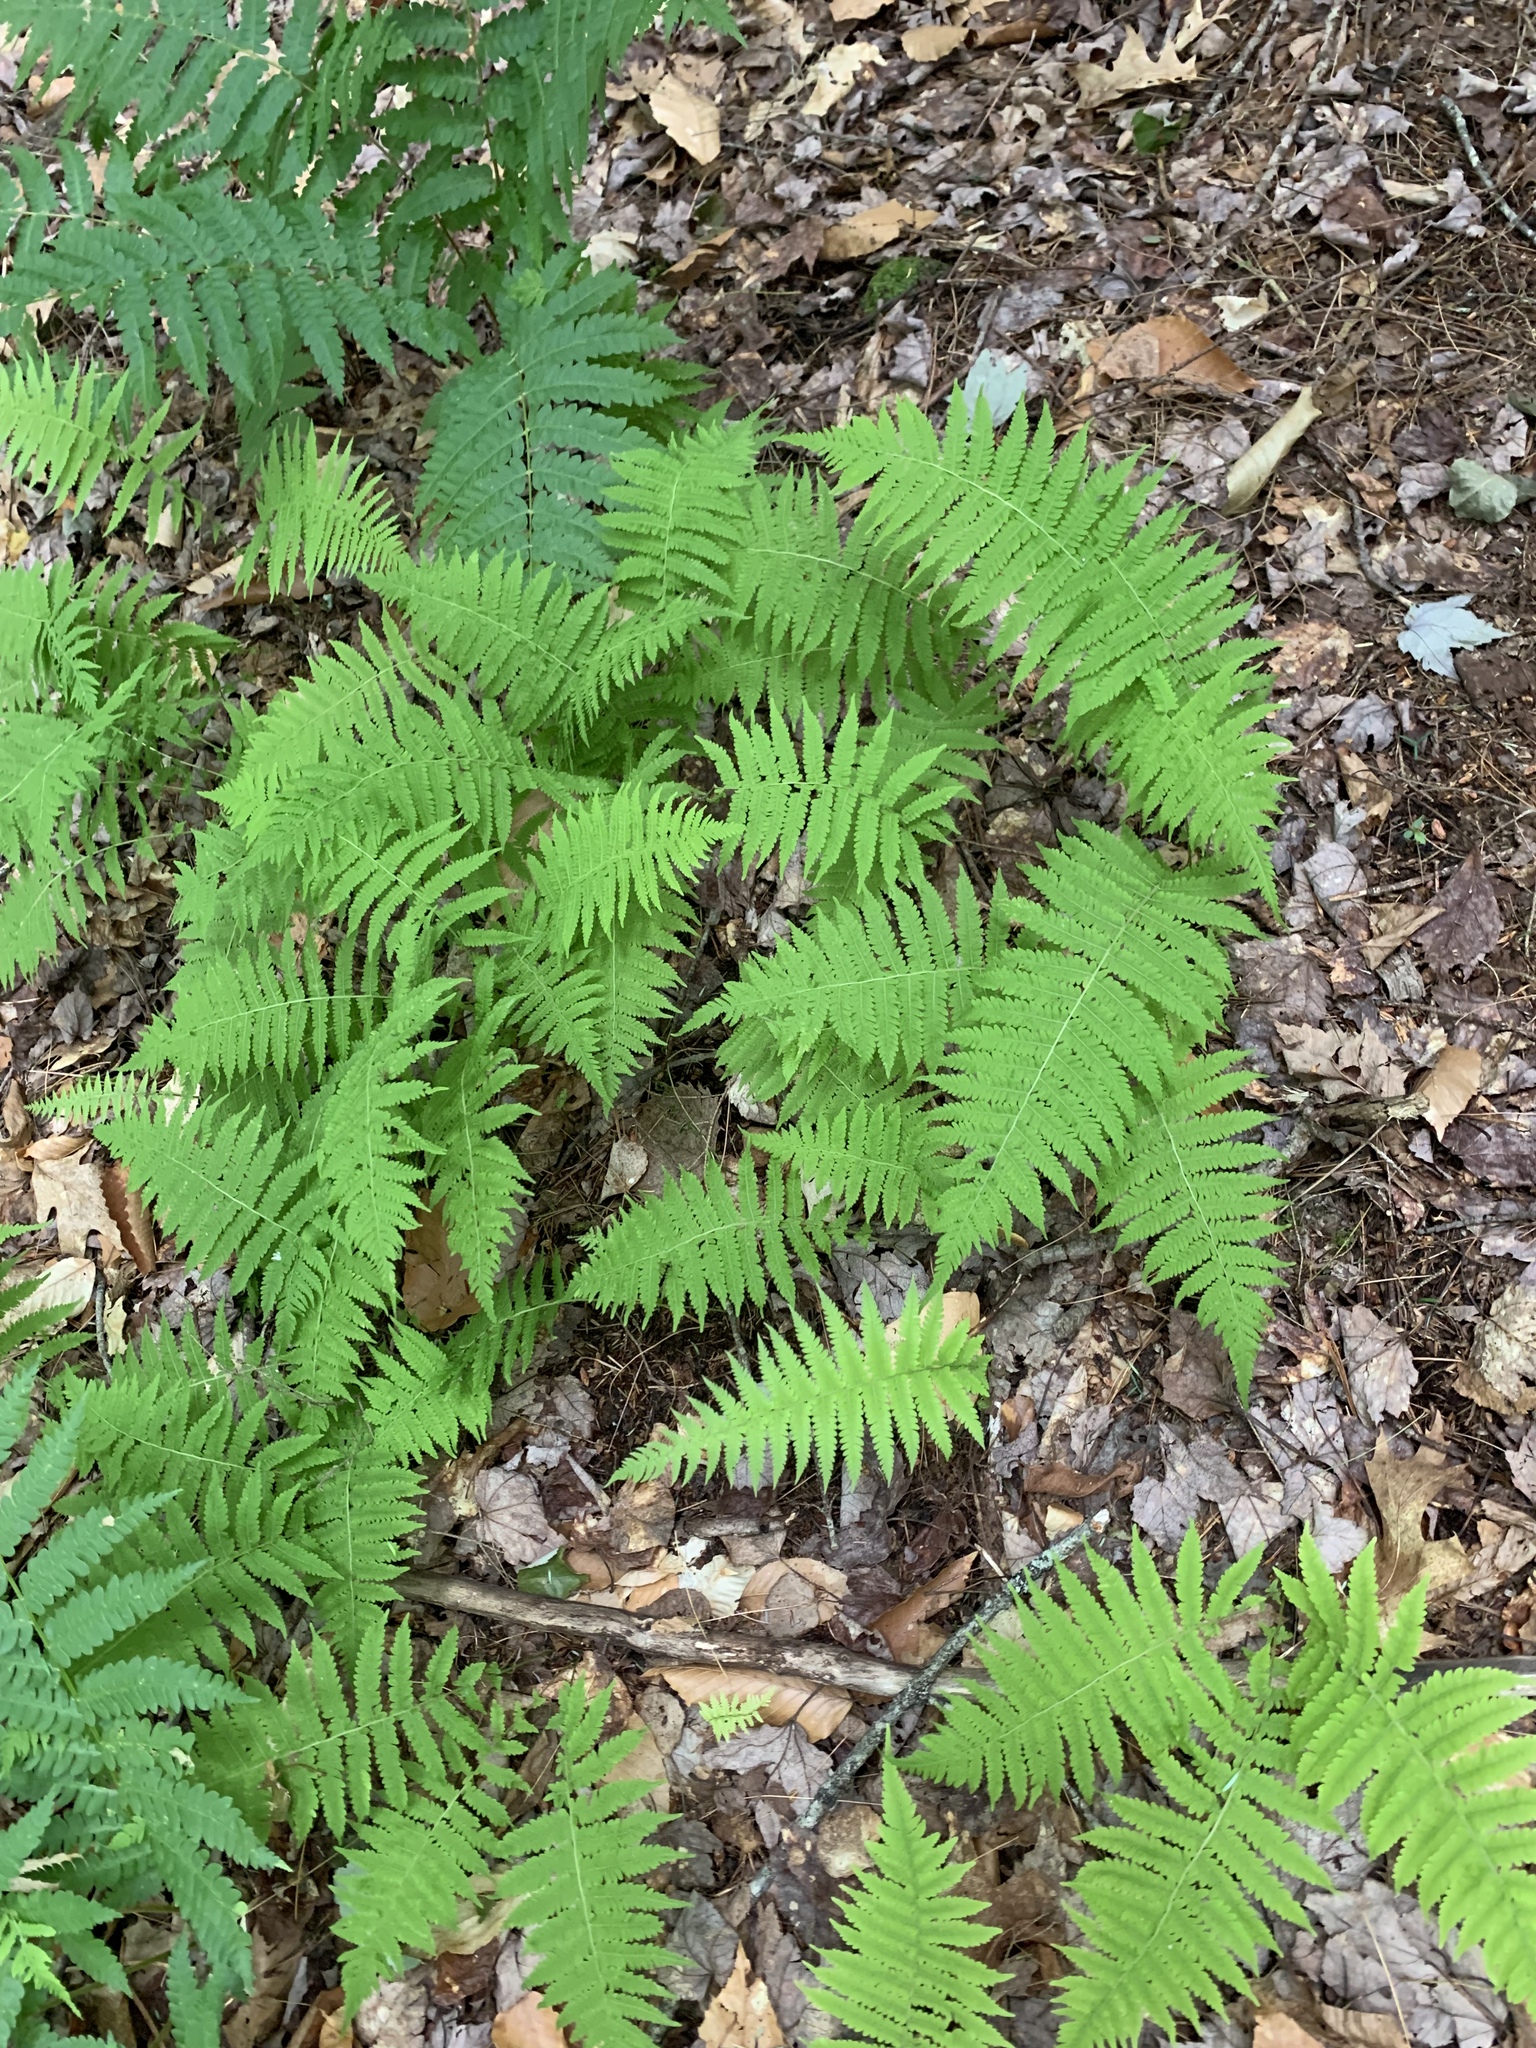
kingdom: Plantae
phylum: Tracheophyta
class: Polypodiopsida
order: Polypodiales
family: Thelypteridaceae
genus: Amauropelta
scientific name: Amauropelta noveboracensis
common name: New york fern
